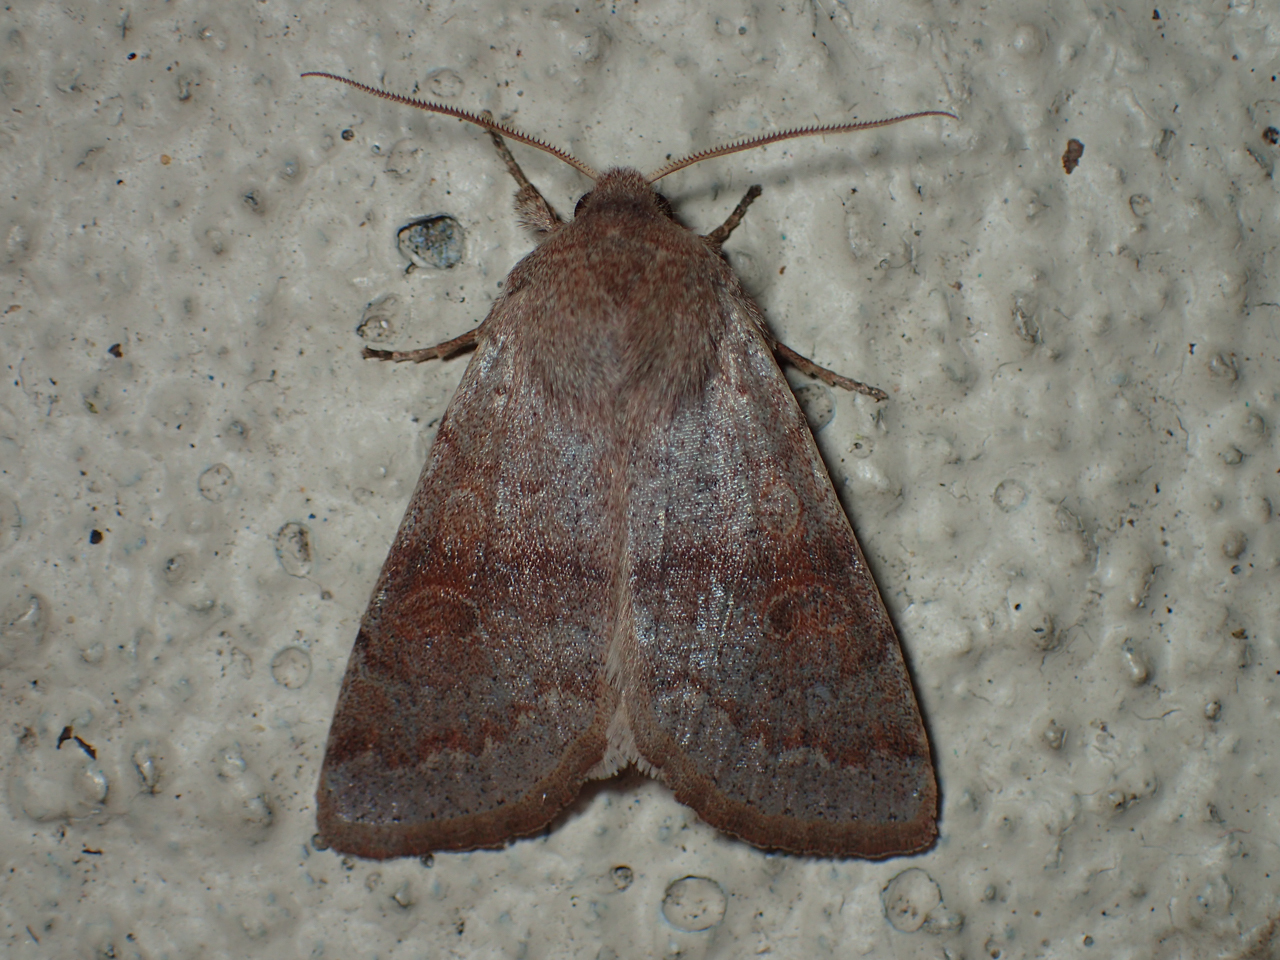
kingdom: Animalia
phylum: Arthropoda
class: Insecta
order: Lepidoptera
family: Noctuidae
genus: Orthosia
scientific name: Orthosia alurina
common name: Gray quaker
